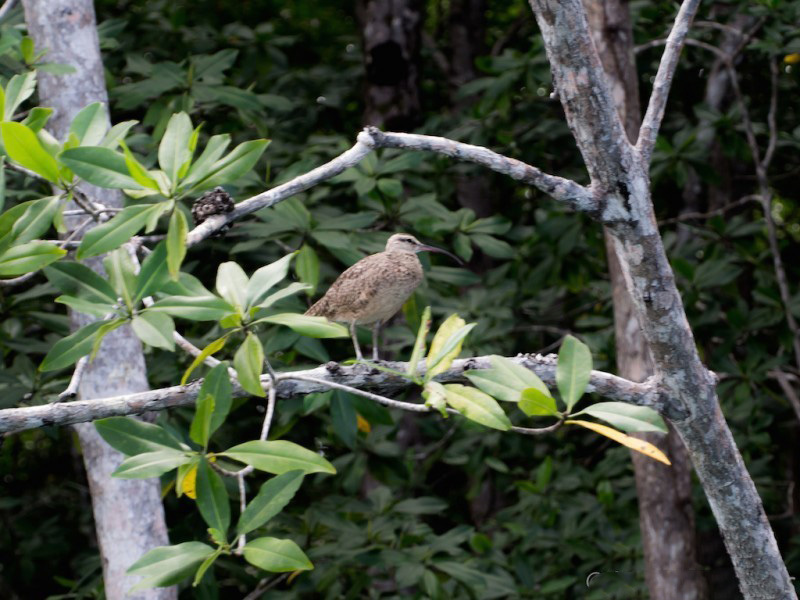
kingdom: Animalia
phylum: Chordata
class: Aves
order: Charadriiformes
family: Scolopacidae
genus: Numenius
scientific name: Numenius hudsonicus
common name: Hudsonian whimbrel
